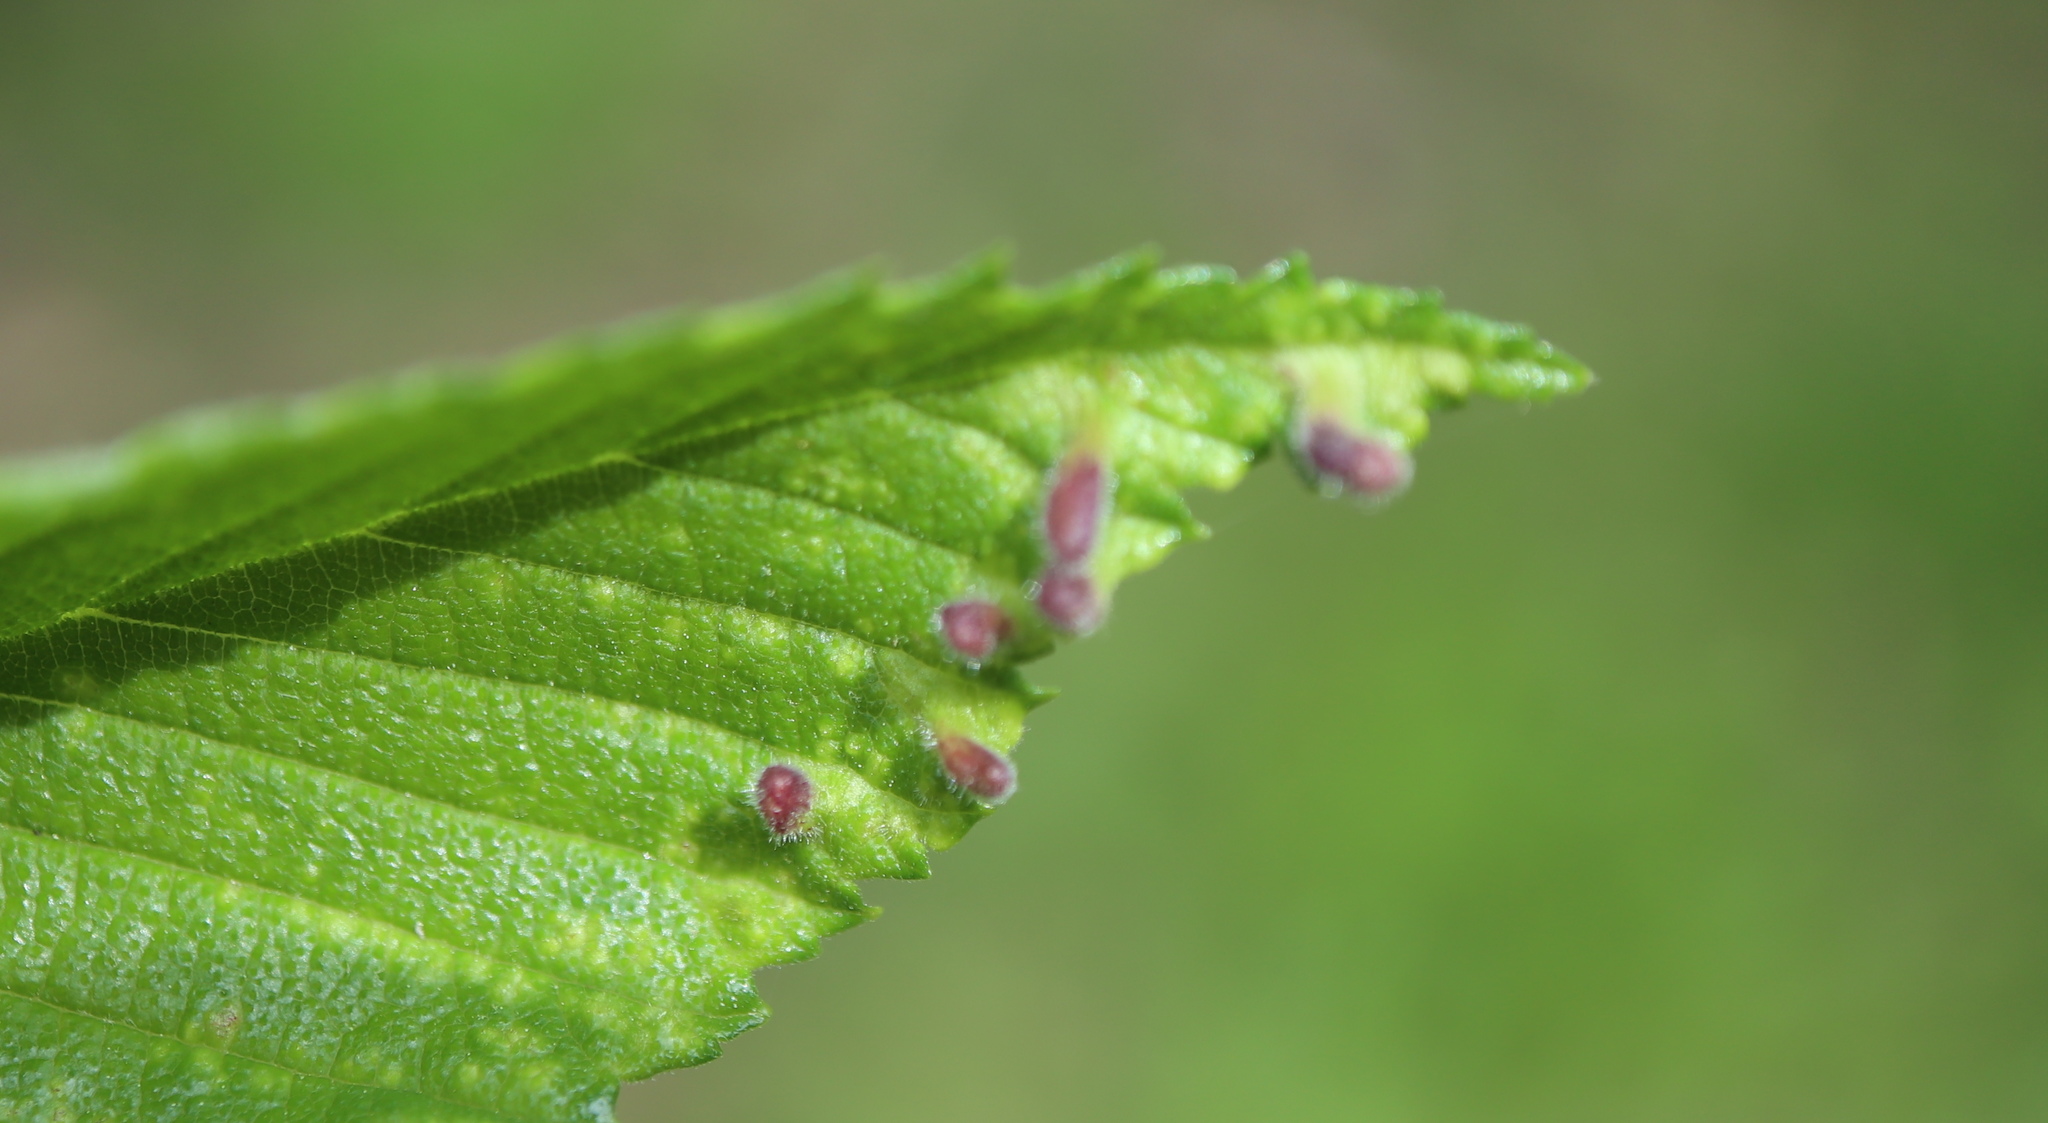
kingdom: Animalia
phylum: Arthropoda
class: Insecta
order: Hemiptera
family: Aphididae
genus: Tetraneura
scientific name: Tetraneura nigriabdominalis
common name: Aphid
